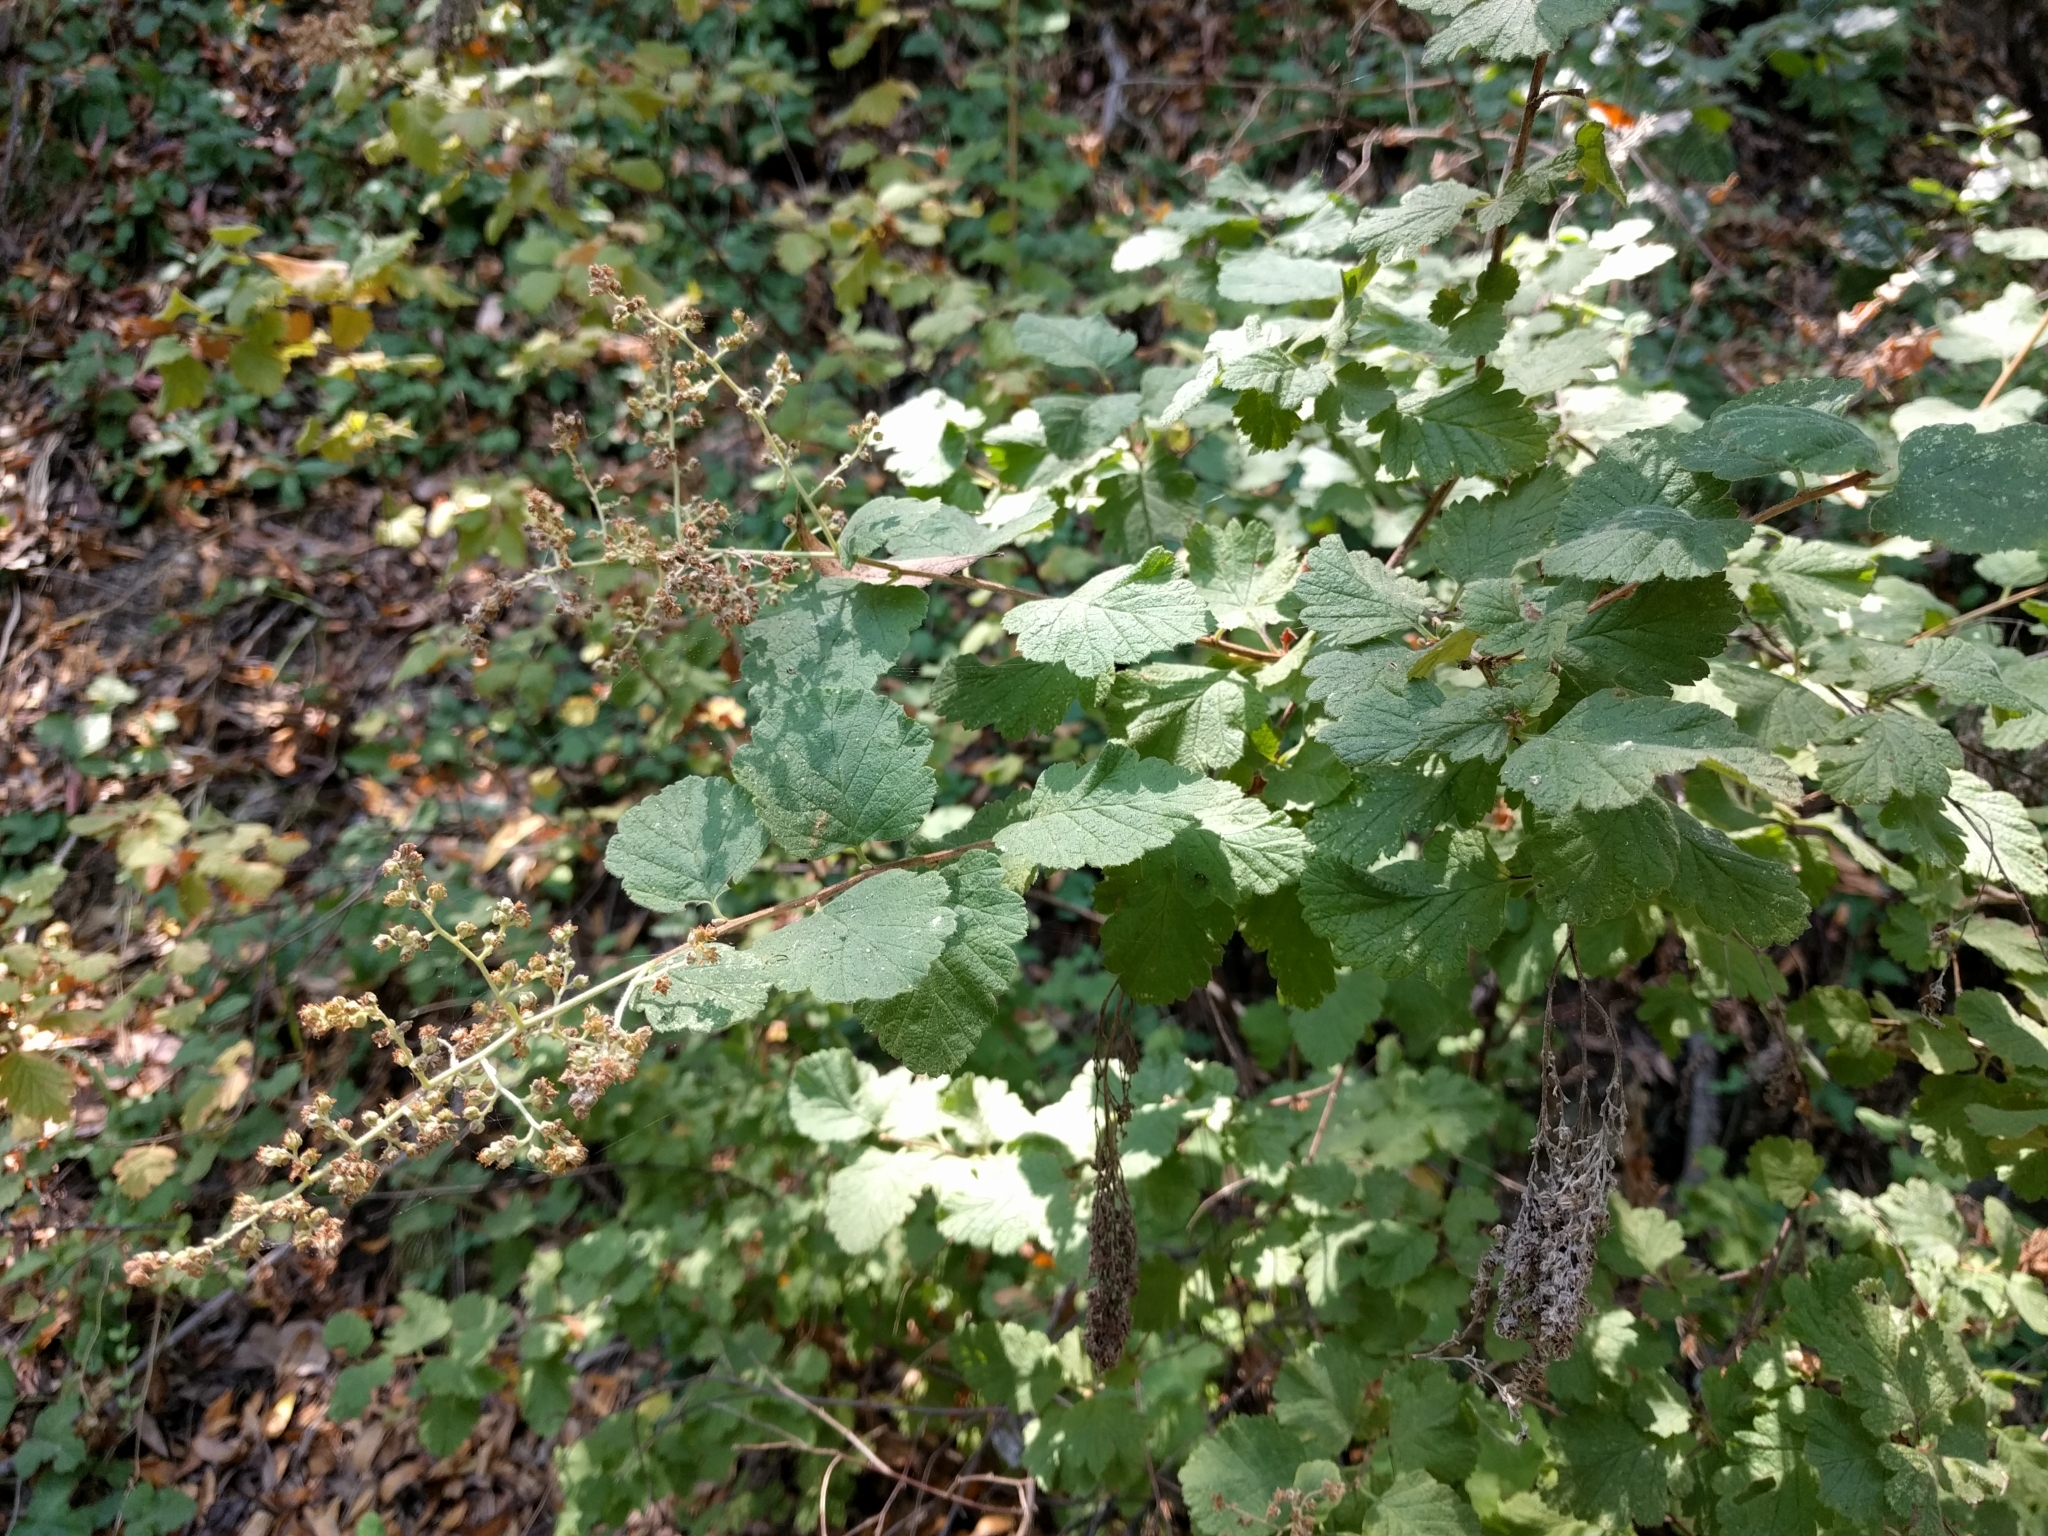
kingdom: Plantae
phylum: Tracheophyta
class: Magnoliopsida
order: Rosales
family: Rosaceae
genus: Holodiscus
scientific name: Holodiscus discolor
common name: Oceanspray
